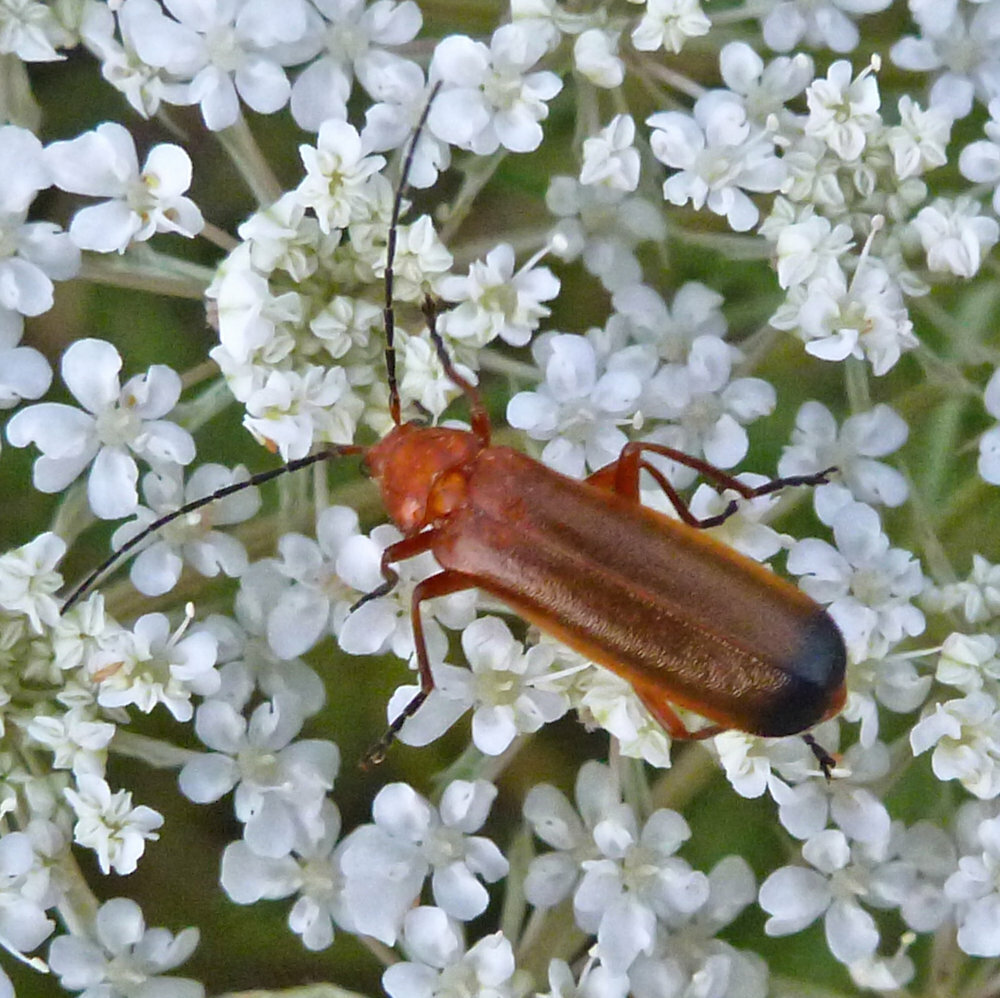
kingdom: Animalia
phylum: Arthropoda
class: Insecta
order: Coleoptera
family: Cantharidae
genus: Rhagonycha
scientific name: Rhagonycha fulva
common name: Common red soldier beetle
